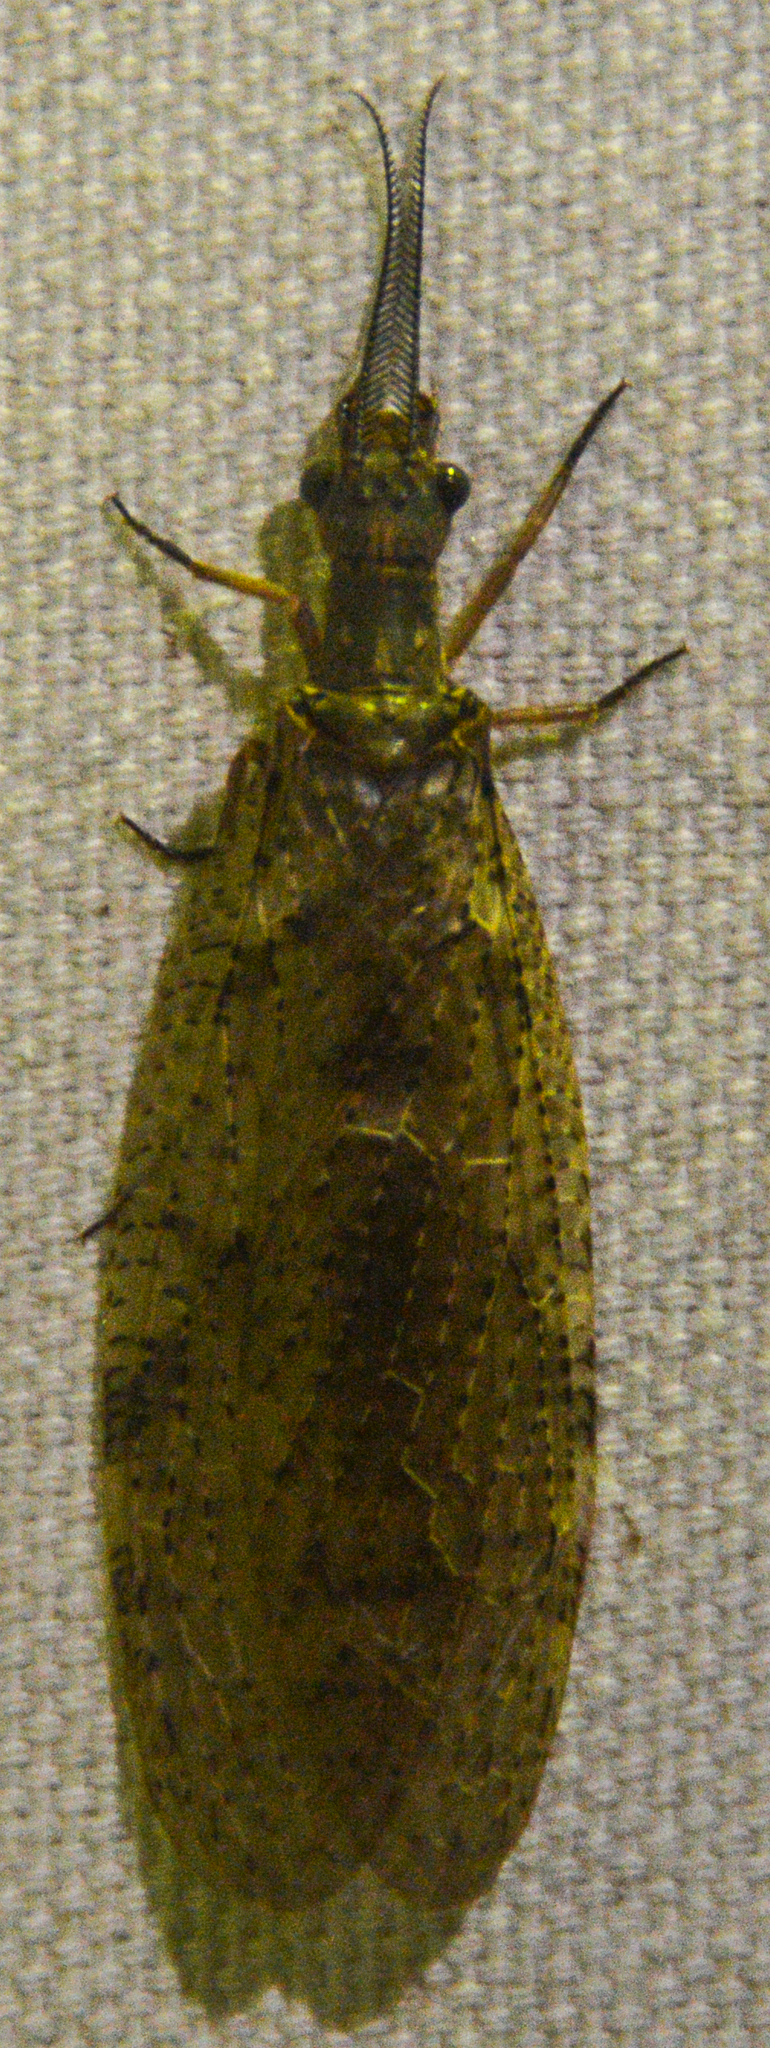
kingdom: Animalia
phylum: Arthropoda
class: Insecta
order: Megaloptera
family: Corydalidae
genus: Chauliodes
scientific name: Chauliodes pectinicornis
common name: Summer fishfly
